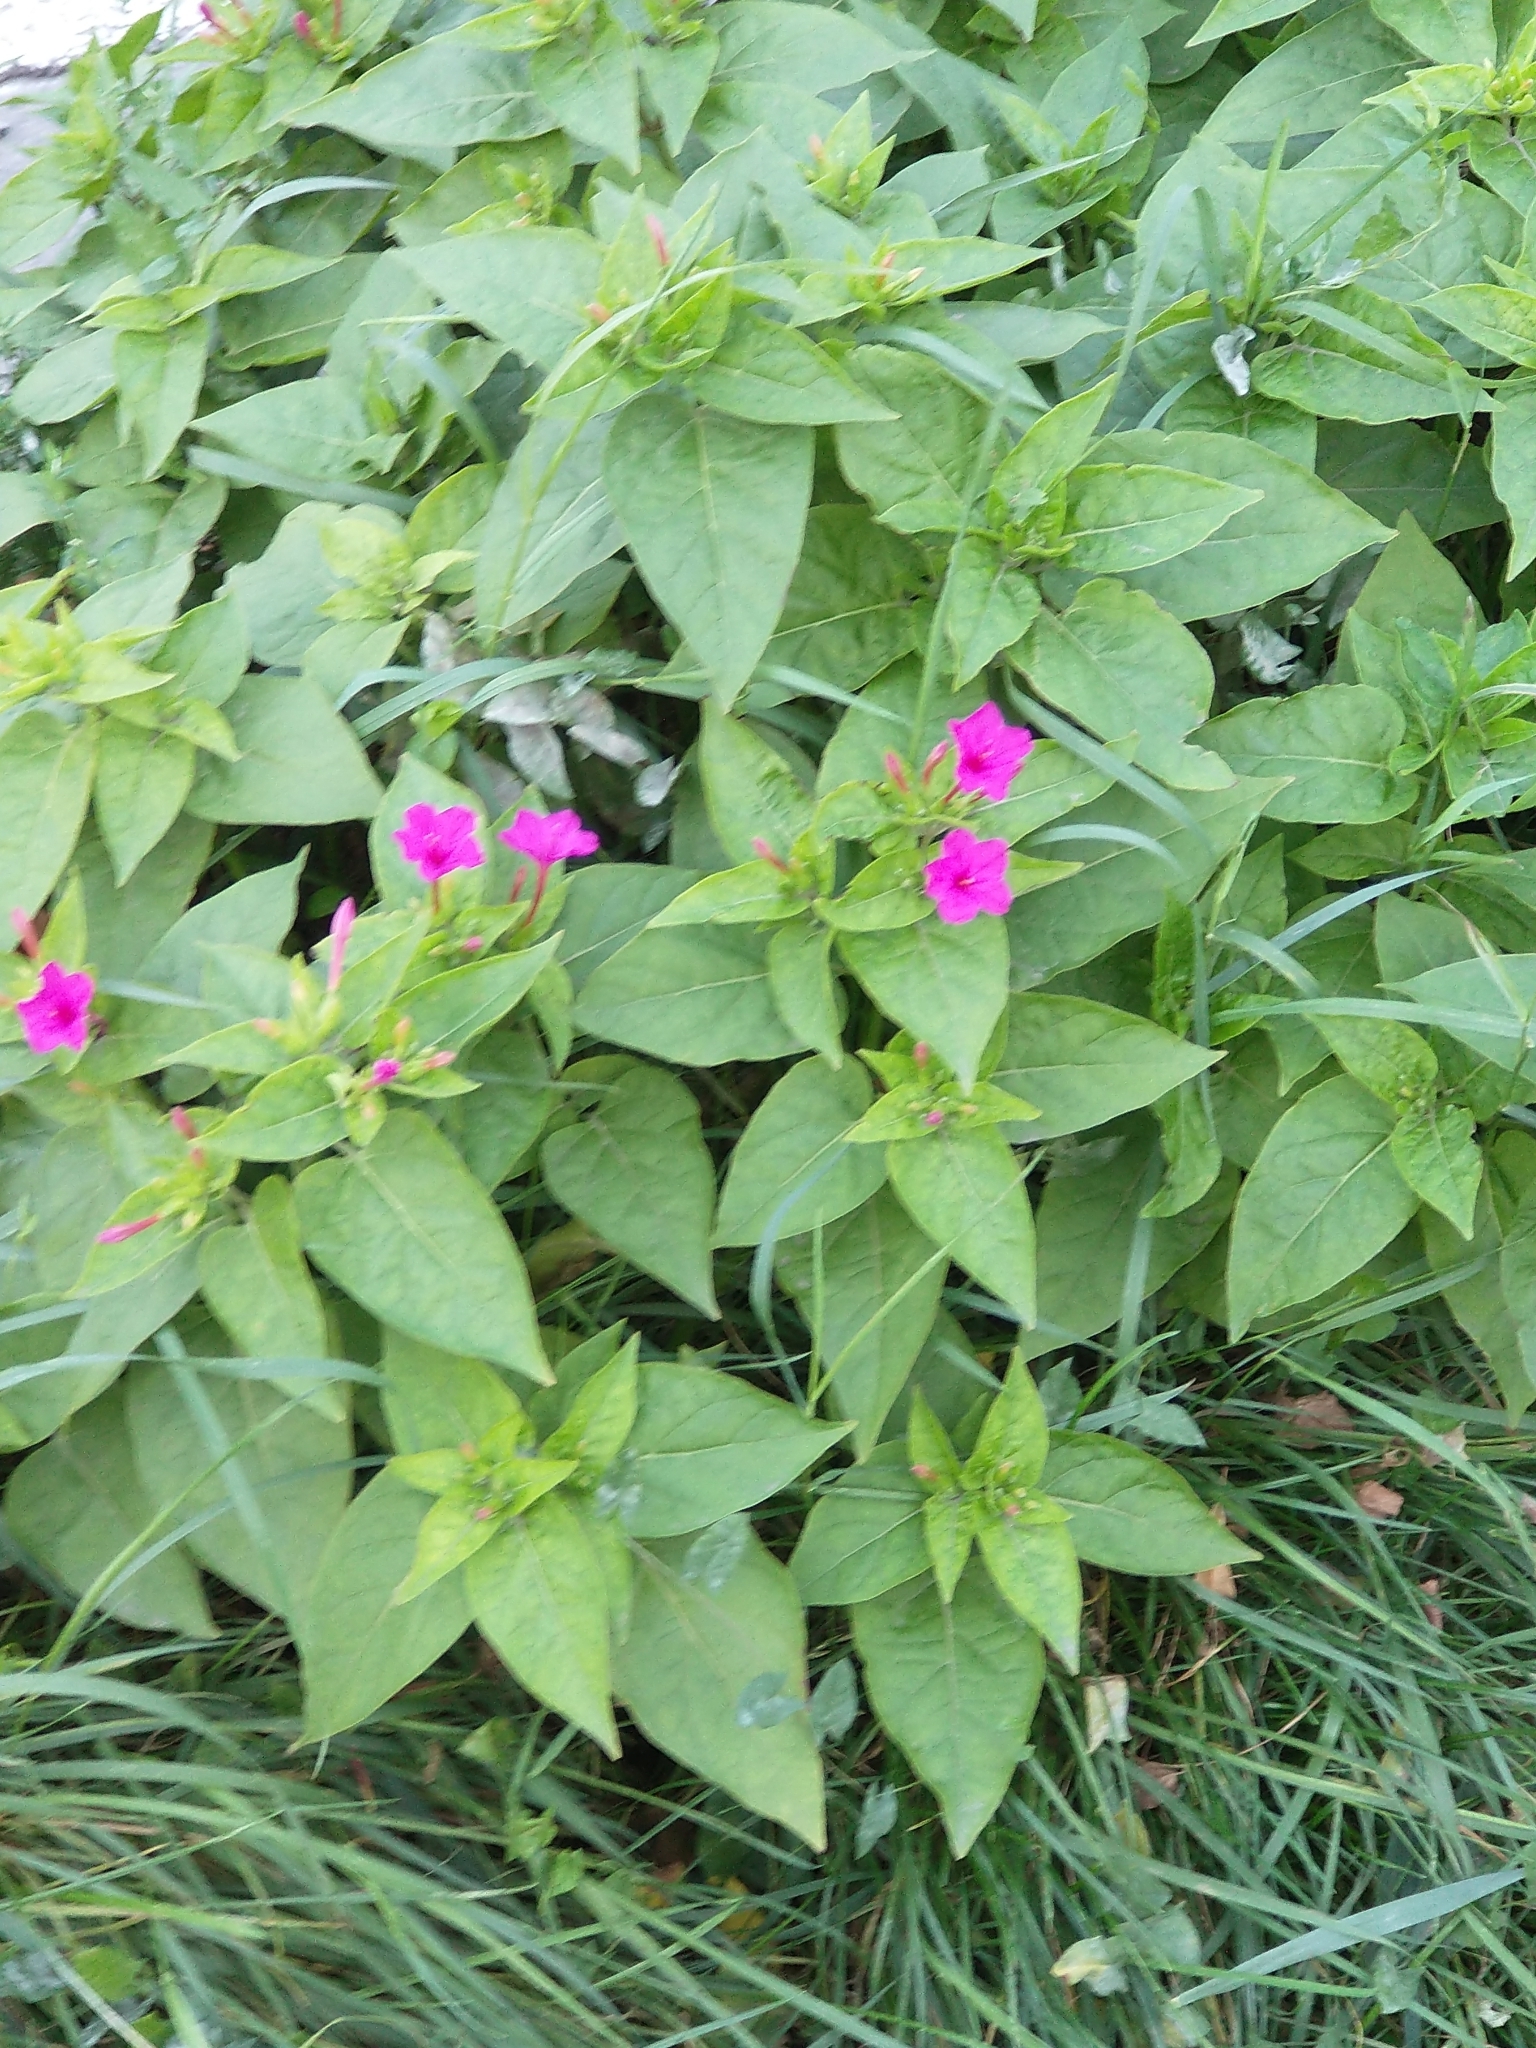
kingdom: Plantae
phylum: Tracheophyta
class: Magnoliopsida
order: Caryophyllales
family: Nyctaginaceae
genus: Mirabilis
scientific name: Mirabilis jalapa
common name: Marvel-of-peru
